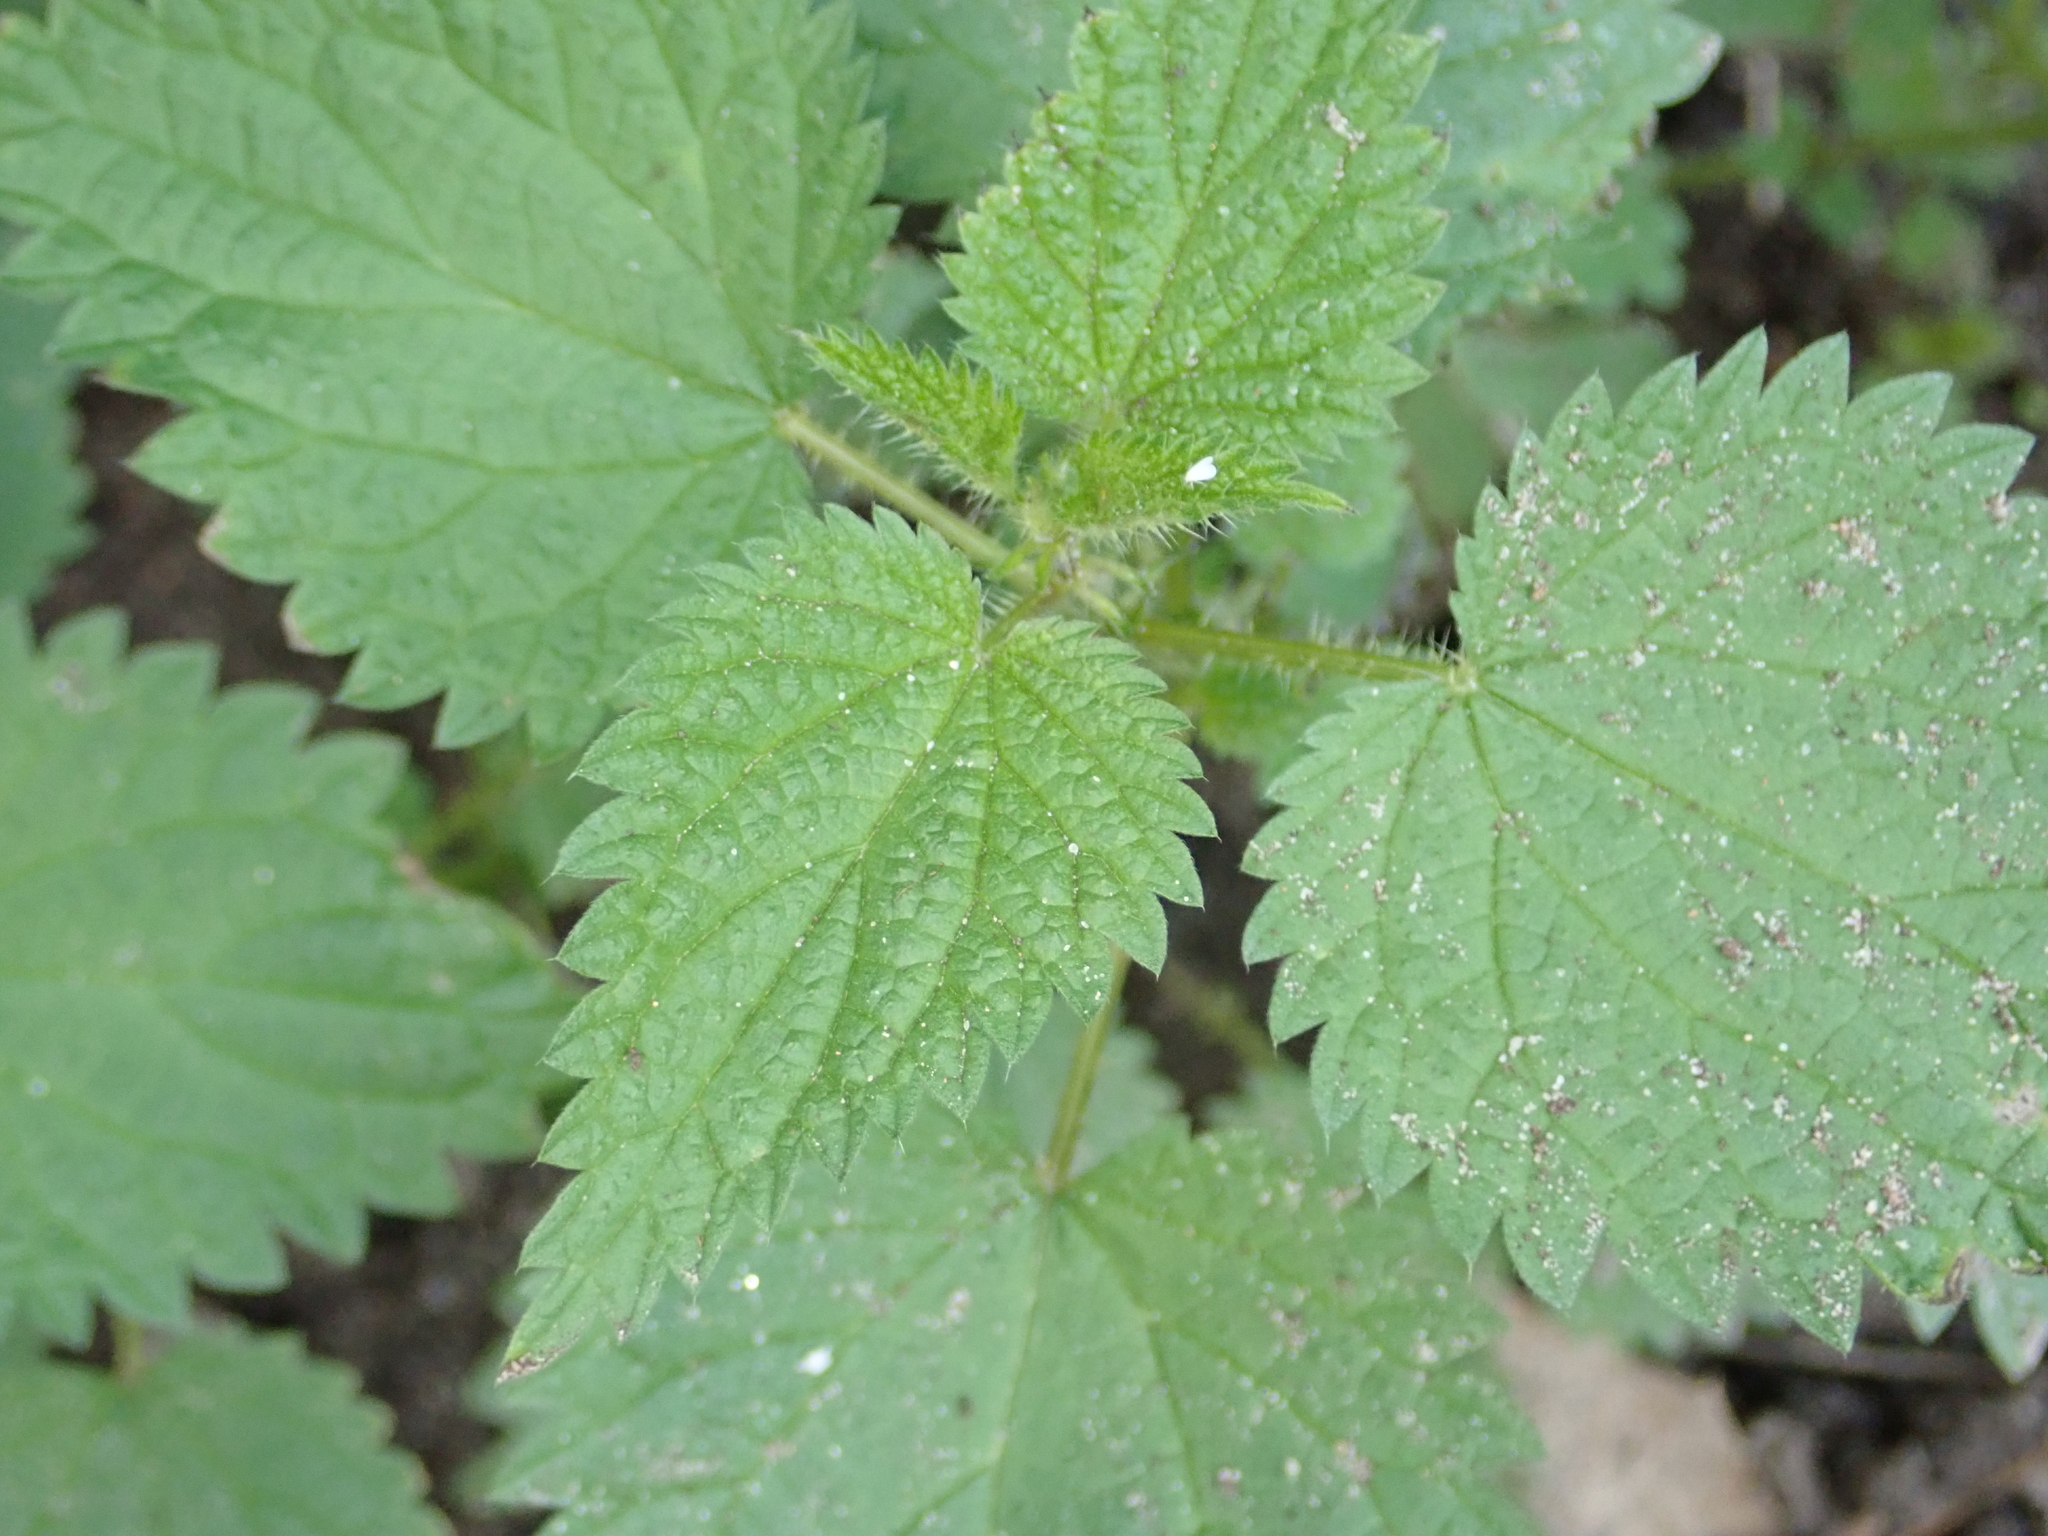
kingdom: Plantae
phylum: Tracheophyta
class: Magnoliopsida
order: Rosales
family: Urticaceae
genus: Urtica
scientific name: Urtica dioica
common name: Common nettle
